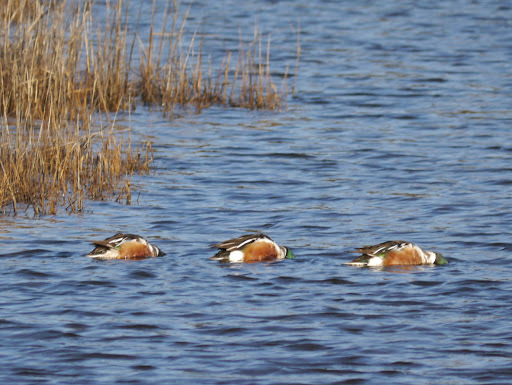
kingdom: Animalia
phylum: Chordata
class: Aves
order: Anseriformes
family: Anatidae
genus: Spatula
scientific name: Spatula clypeata
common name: Northern shoveler
